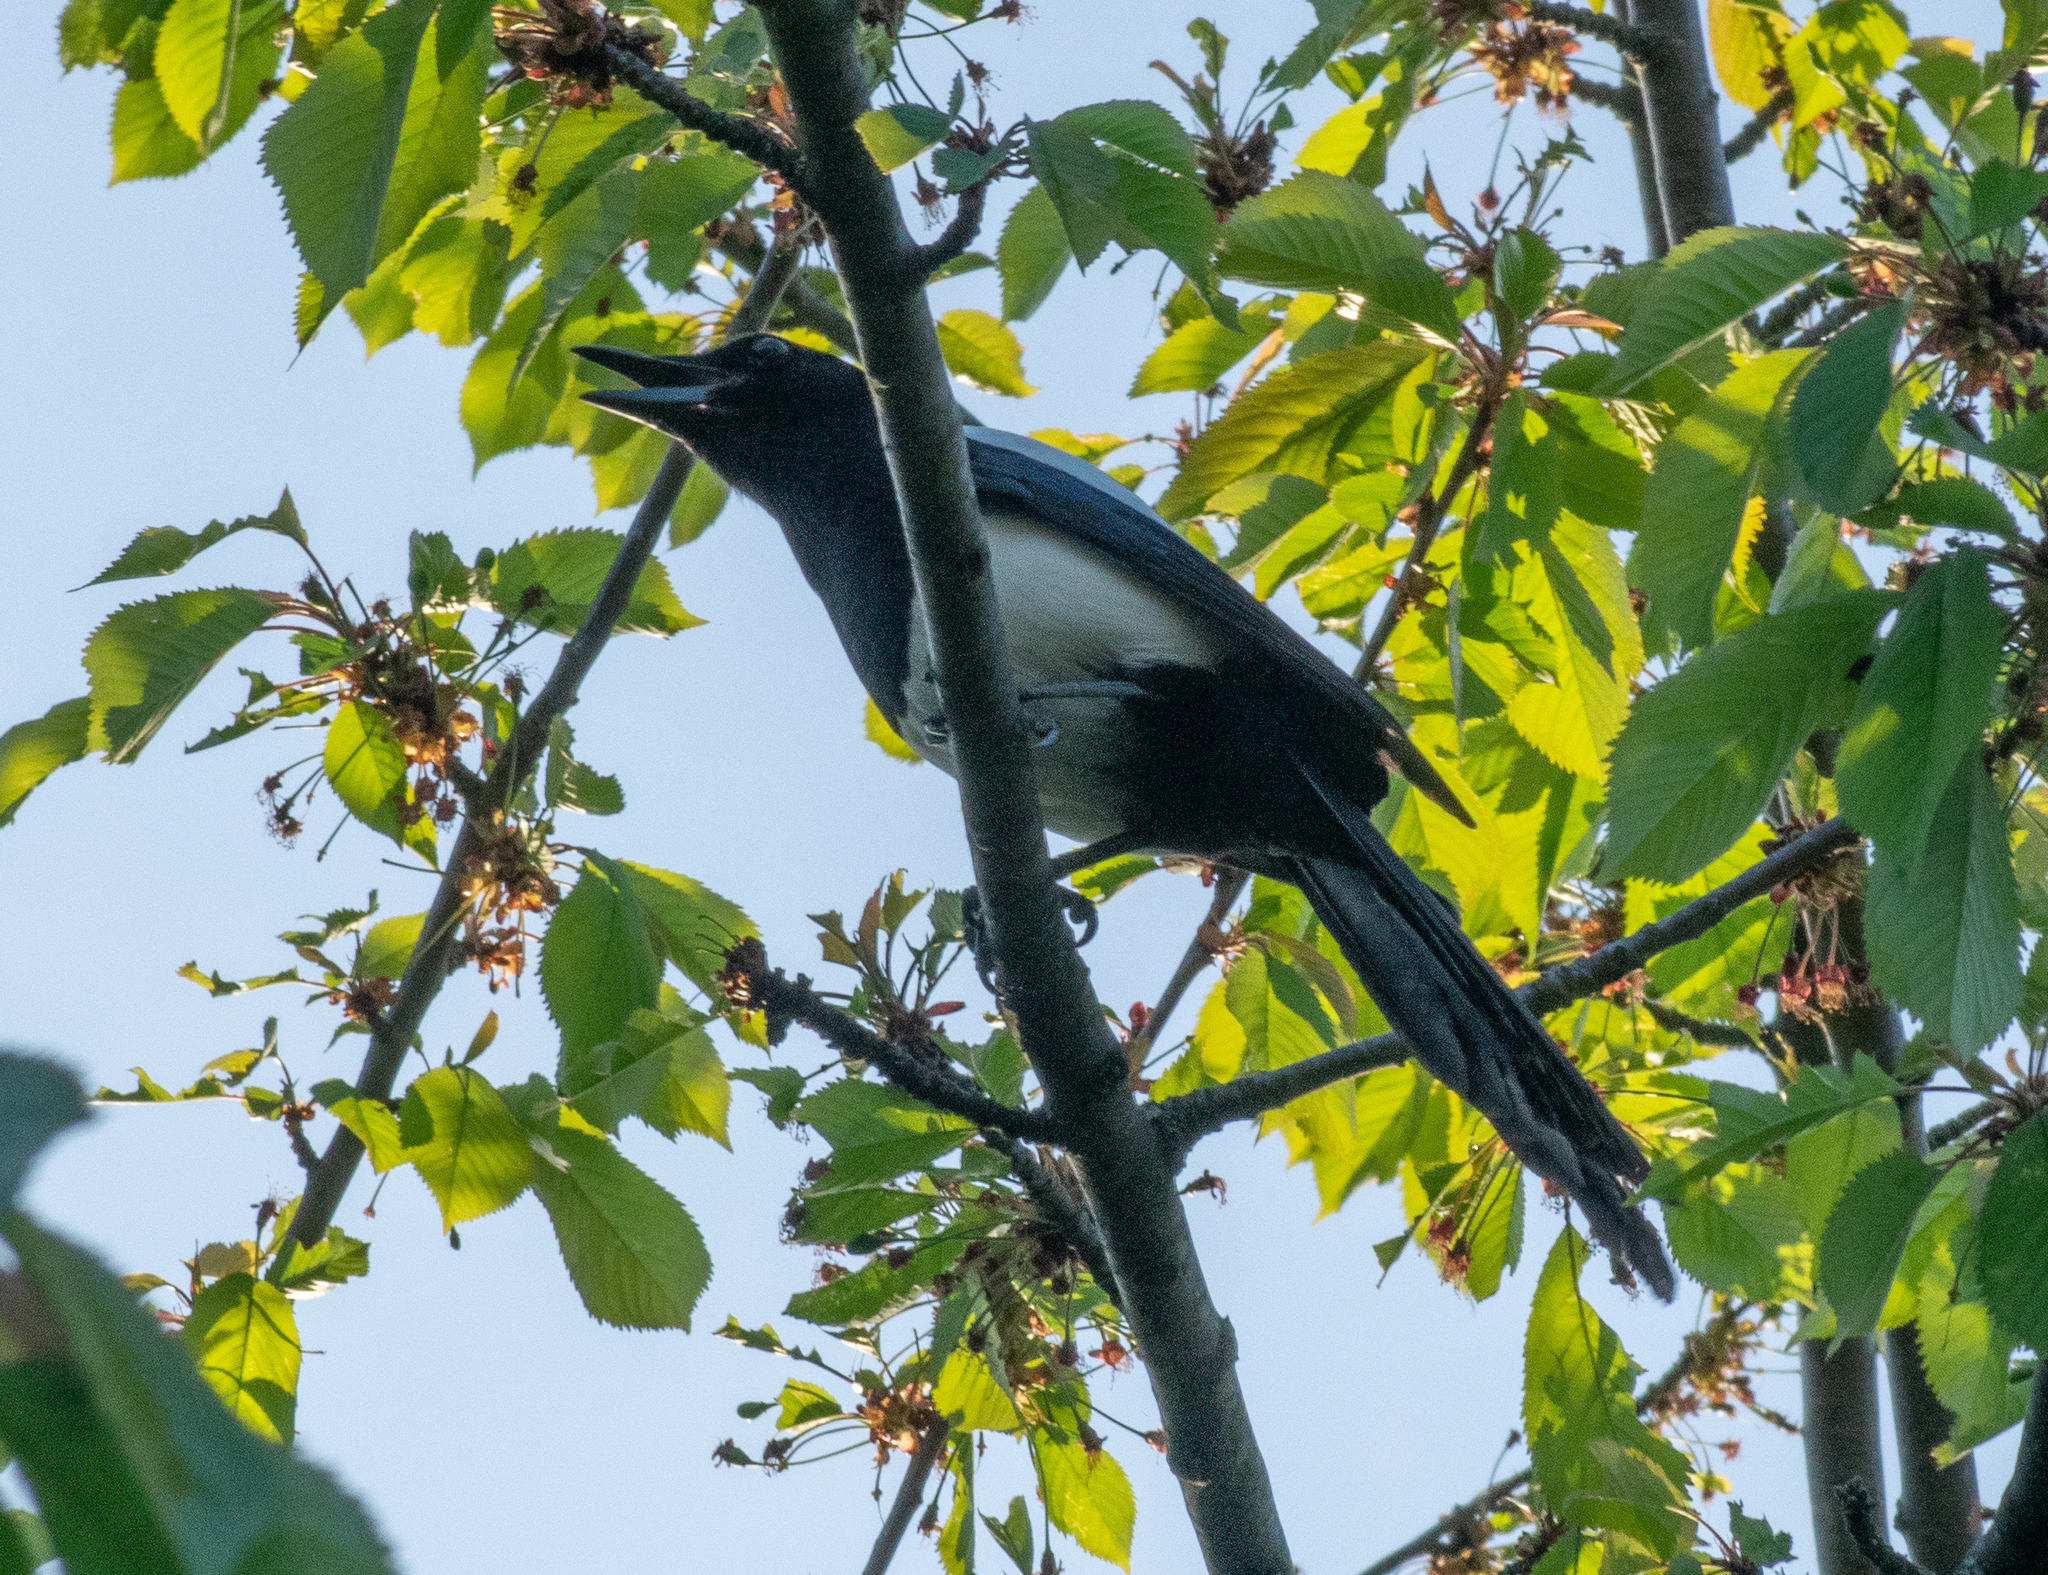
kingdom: Animalia
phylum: Chordata
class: Aves
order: Passeriformes
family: Corvidae
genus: Pica
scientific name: Pica pica
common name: Eurasian magpie
